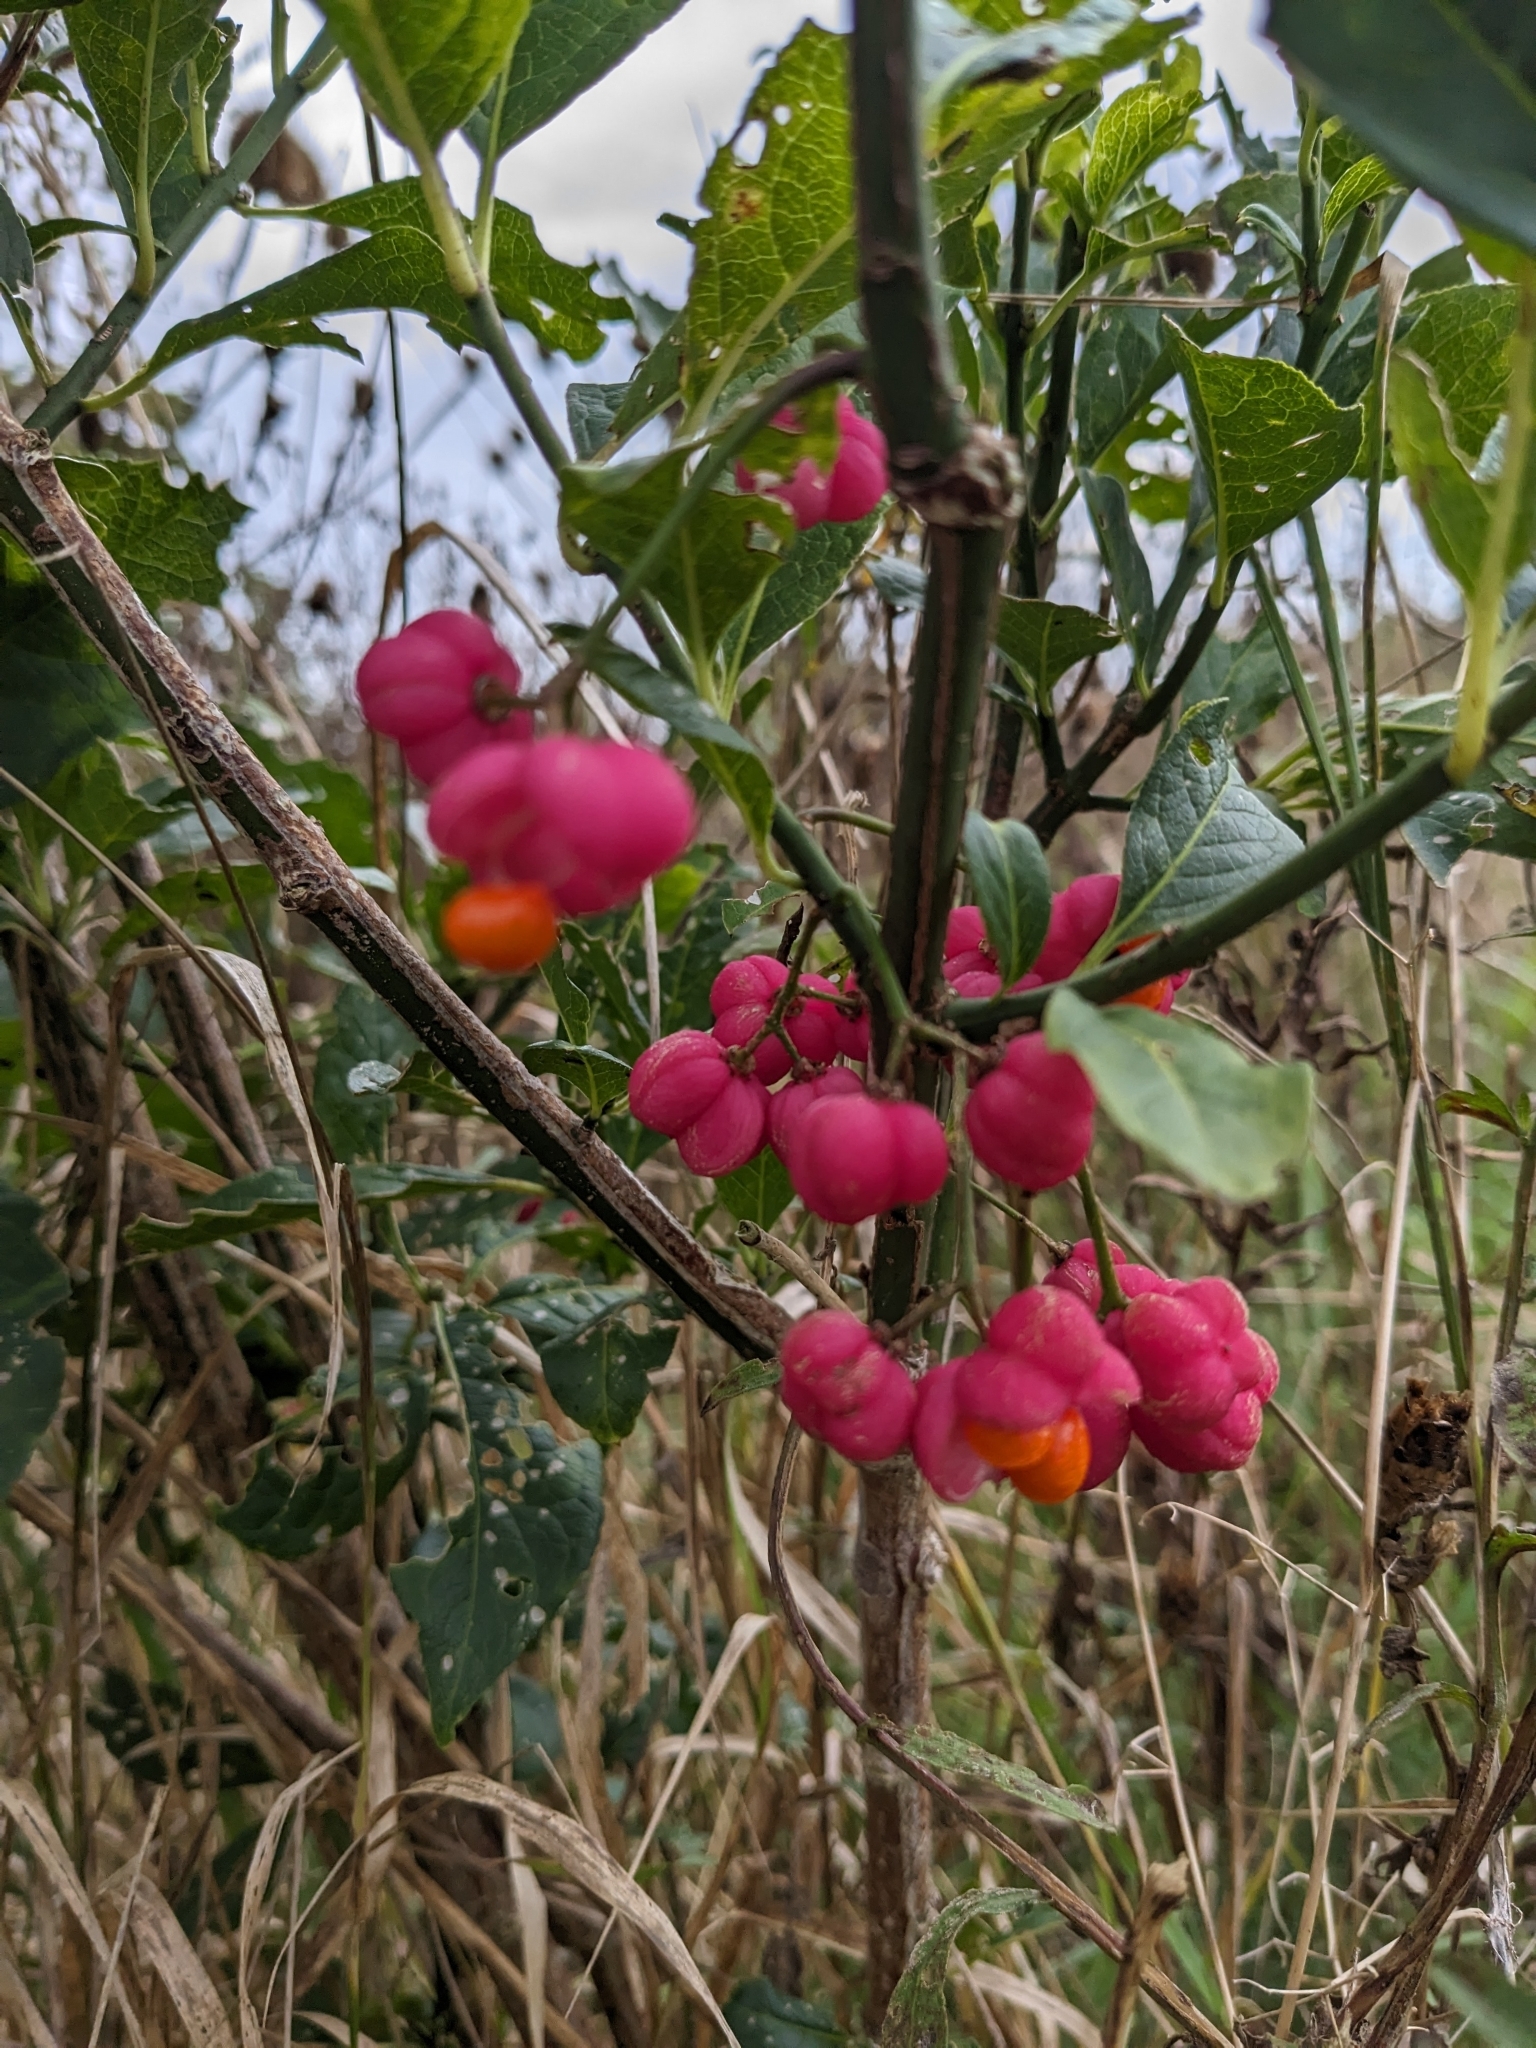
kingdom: Plantae
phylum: Tracheophyta
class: Magnoliopsida
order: Celastrales
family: Celastraceae
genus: Euonymus
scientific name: Euonymus europaeus
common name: Spindle
